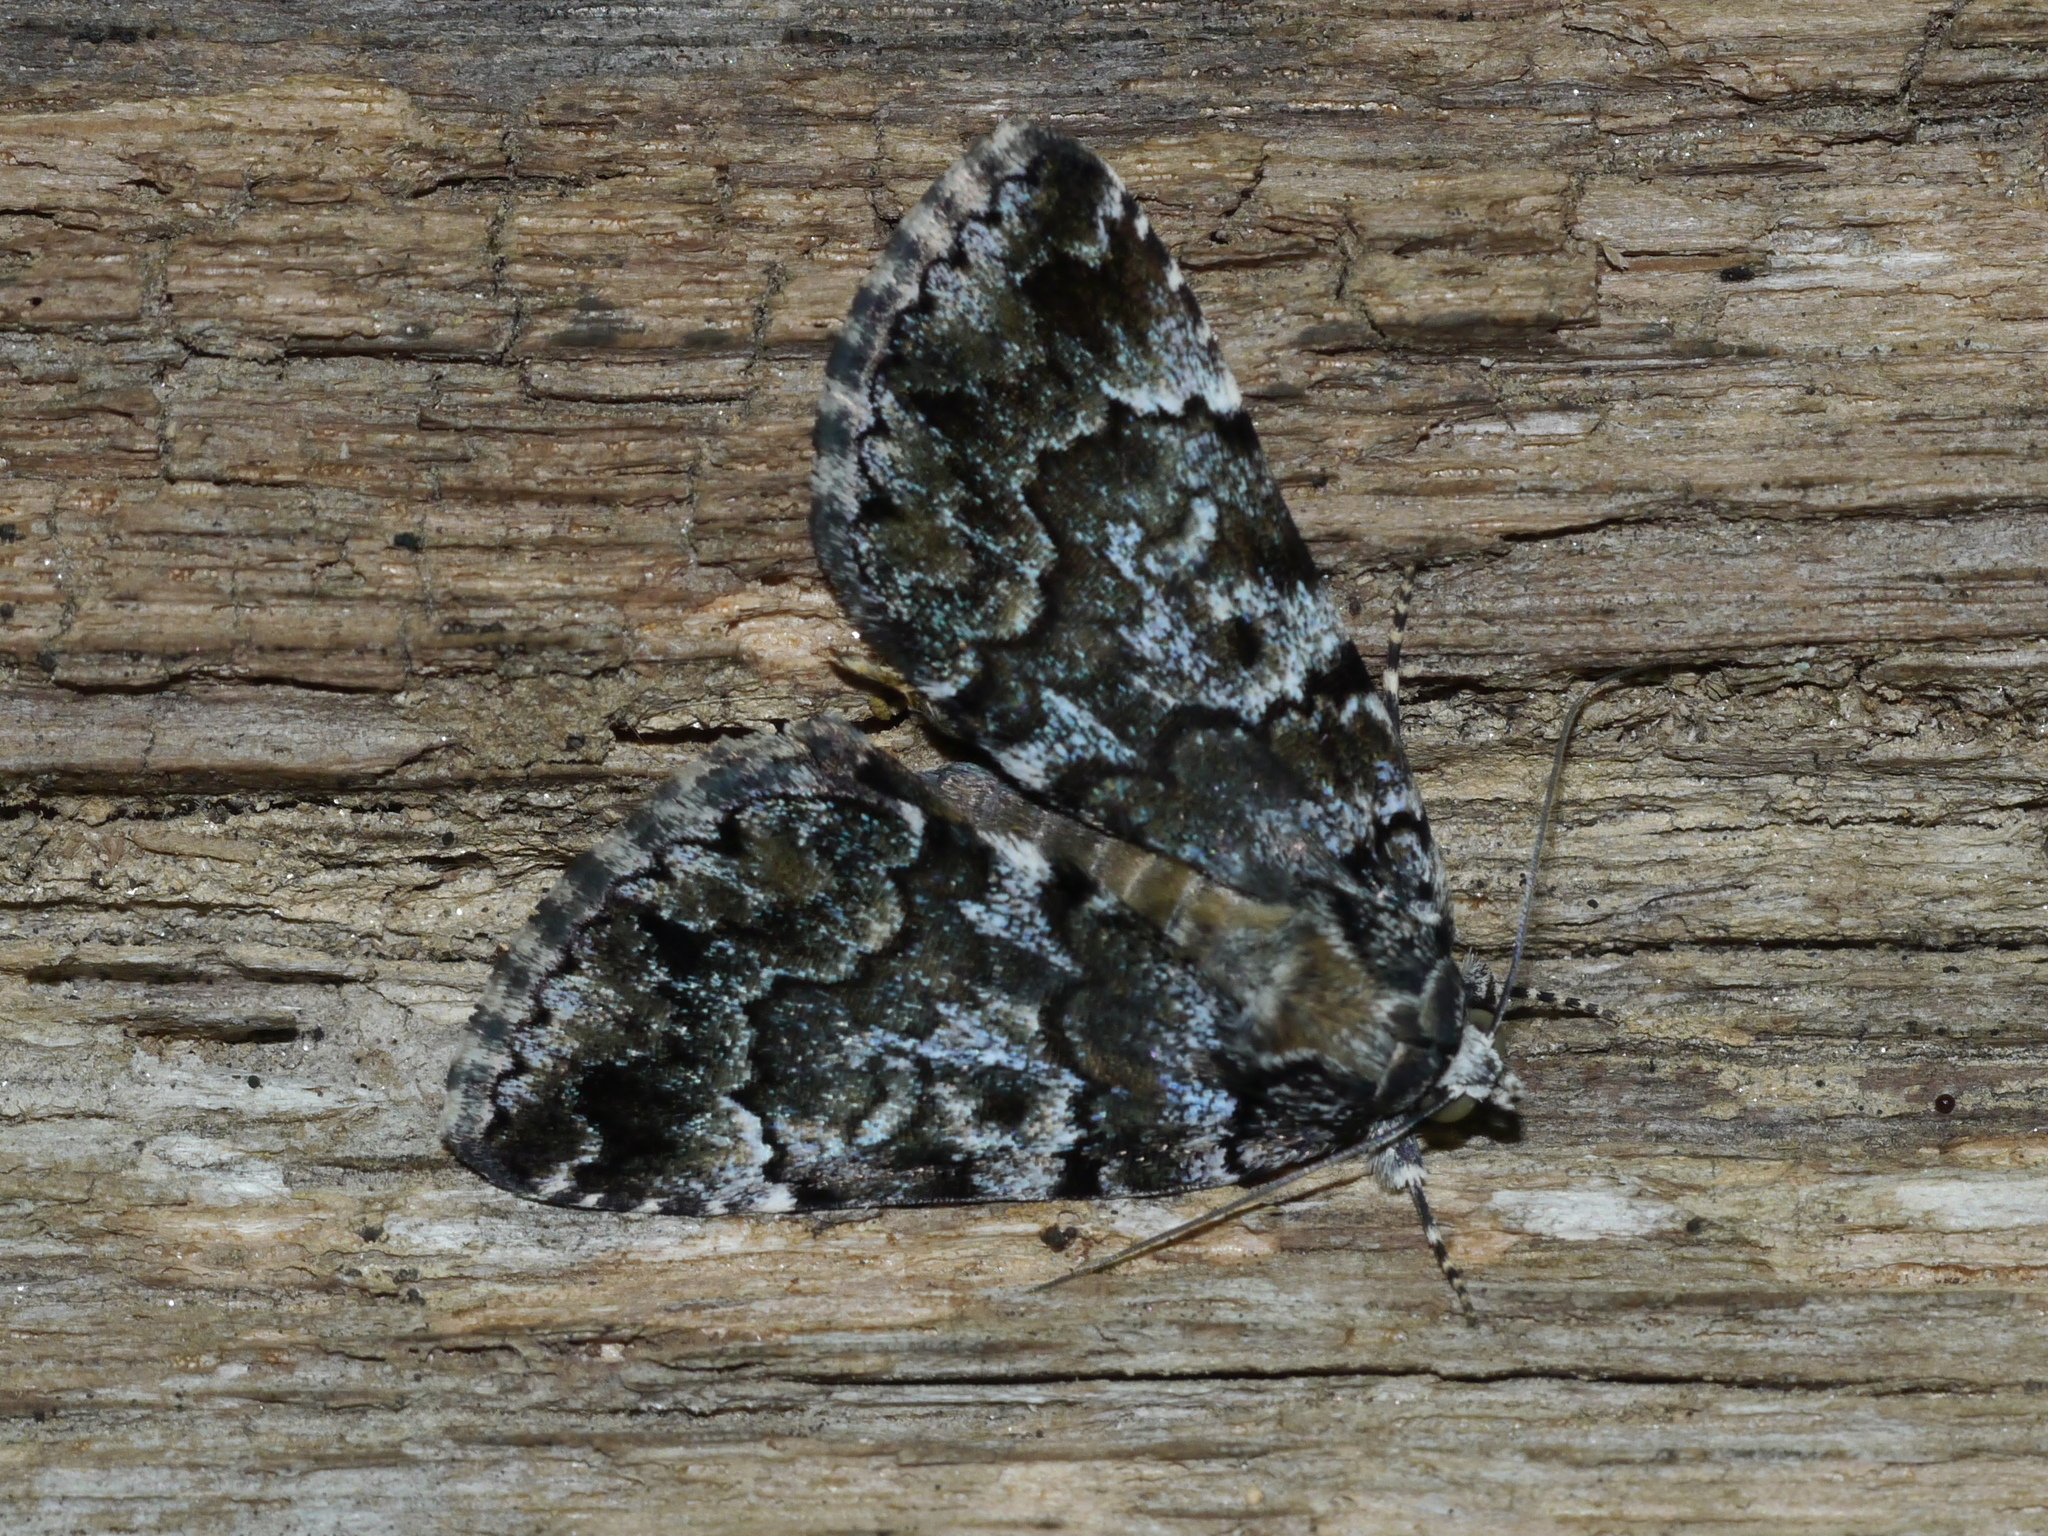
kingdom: Animalia
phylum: Arthropoda
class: Insecta
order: Lepidoptera
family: Erebidae
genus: Allotria
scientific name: Allotria elonympha
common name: False underwing
